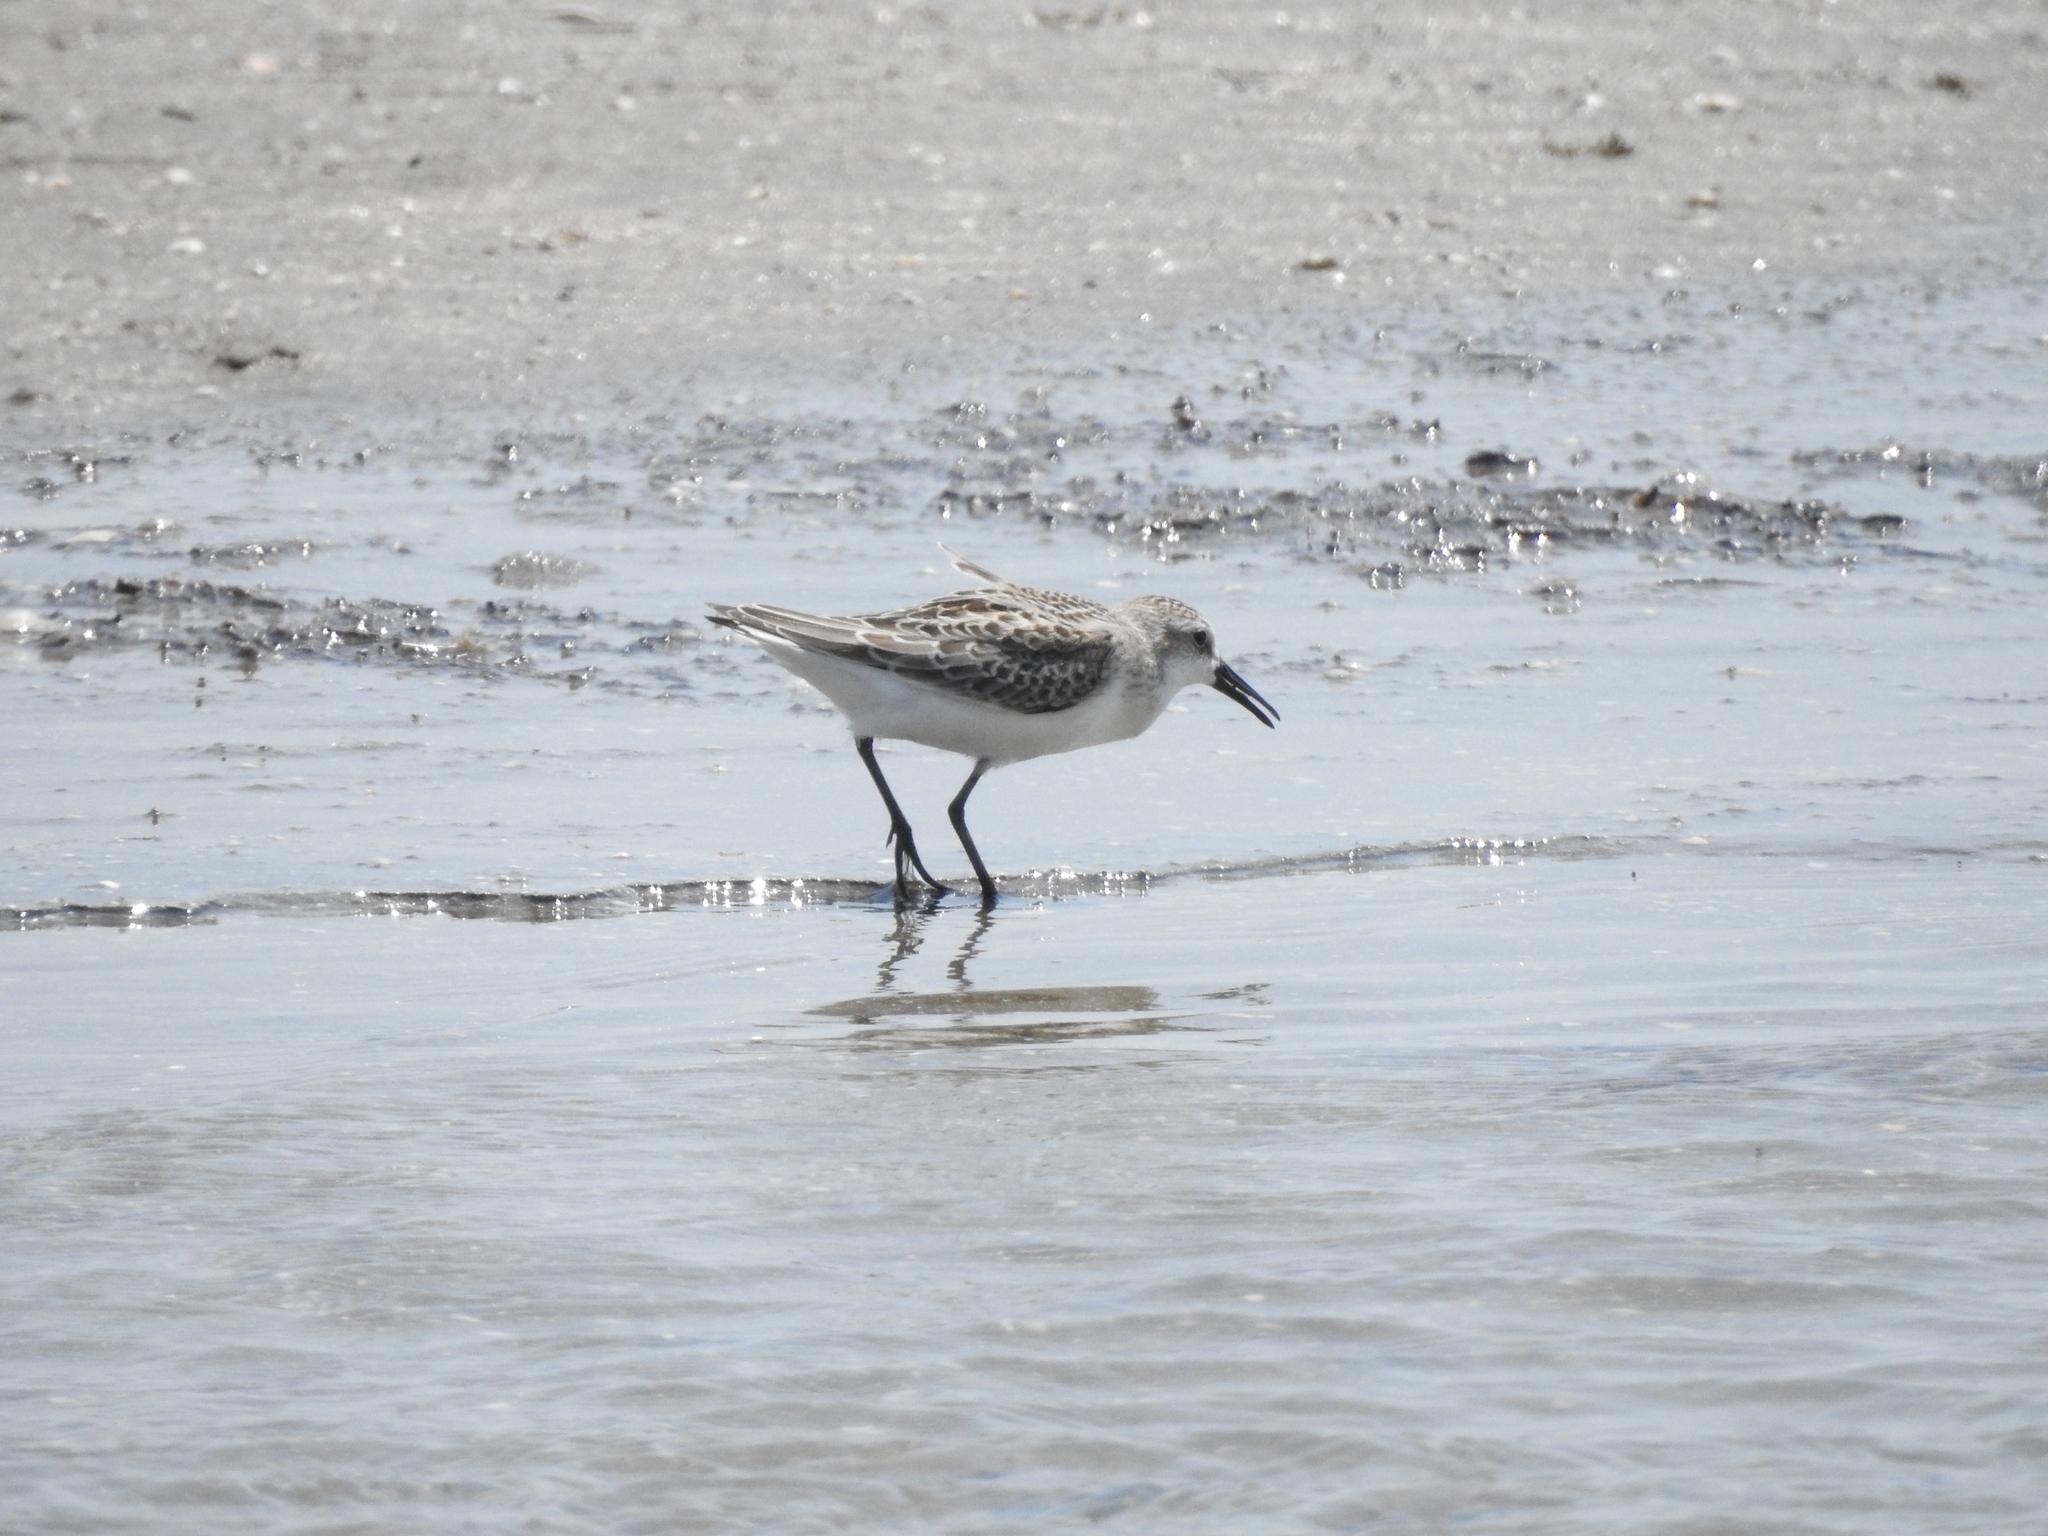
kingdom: Animalia
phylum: Chordata
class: Aves
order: Charadriiformes
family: Scolopacidae
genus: Calidris
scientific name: Calidris mauri
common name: Western sandpiper
